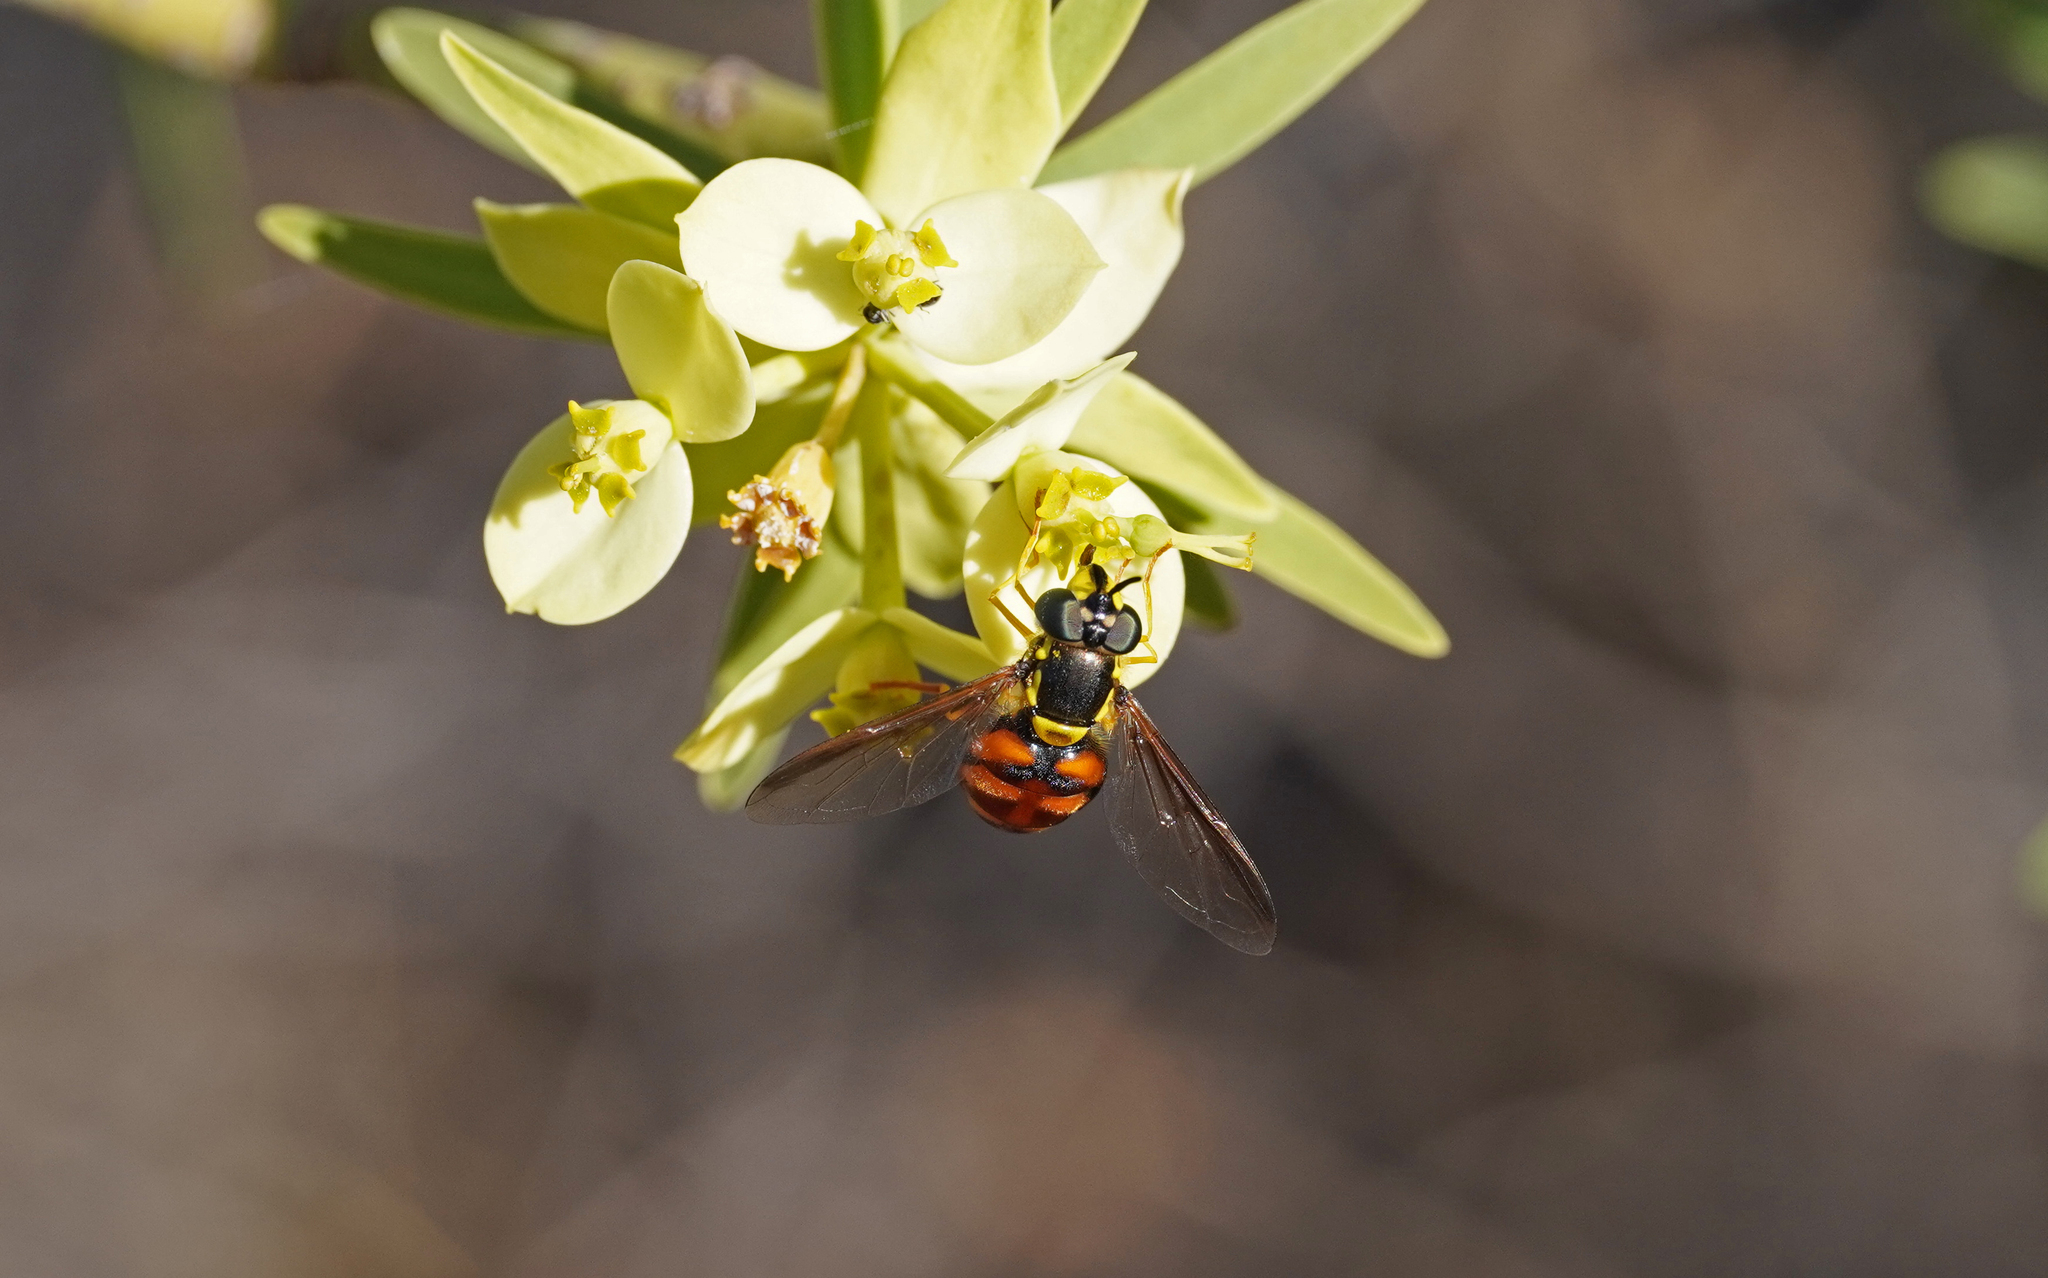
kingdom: Animalia
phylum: Arthropoda
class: Insecta
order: Diptera
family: Syrphidae
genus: Chrysotoxum
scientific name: Chrysotoxum triarcuatum
